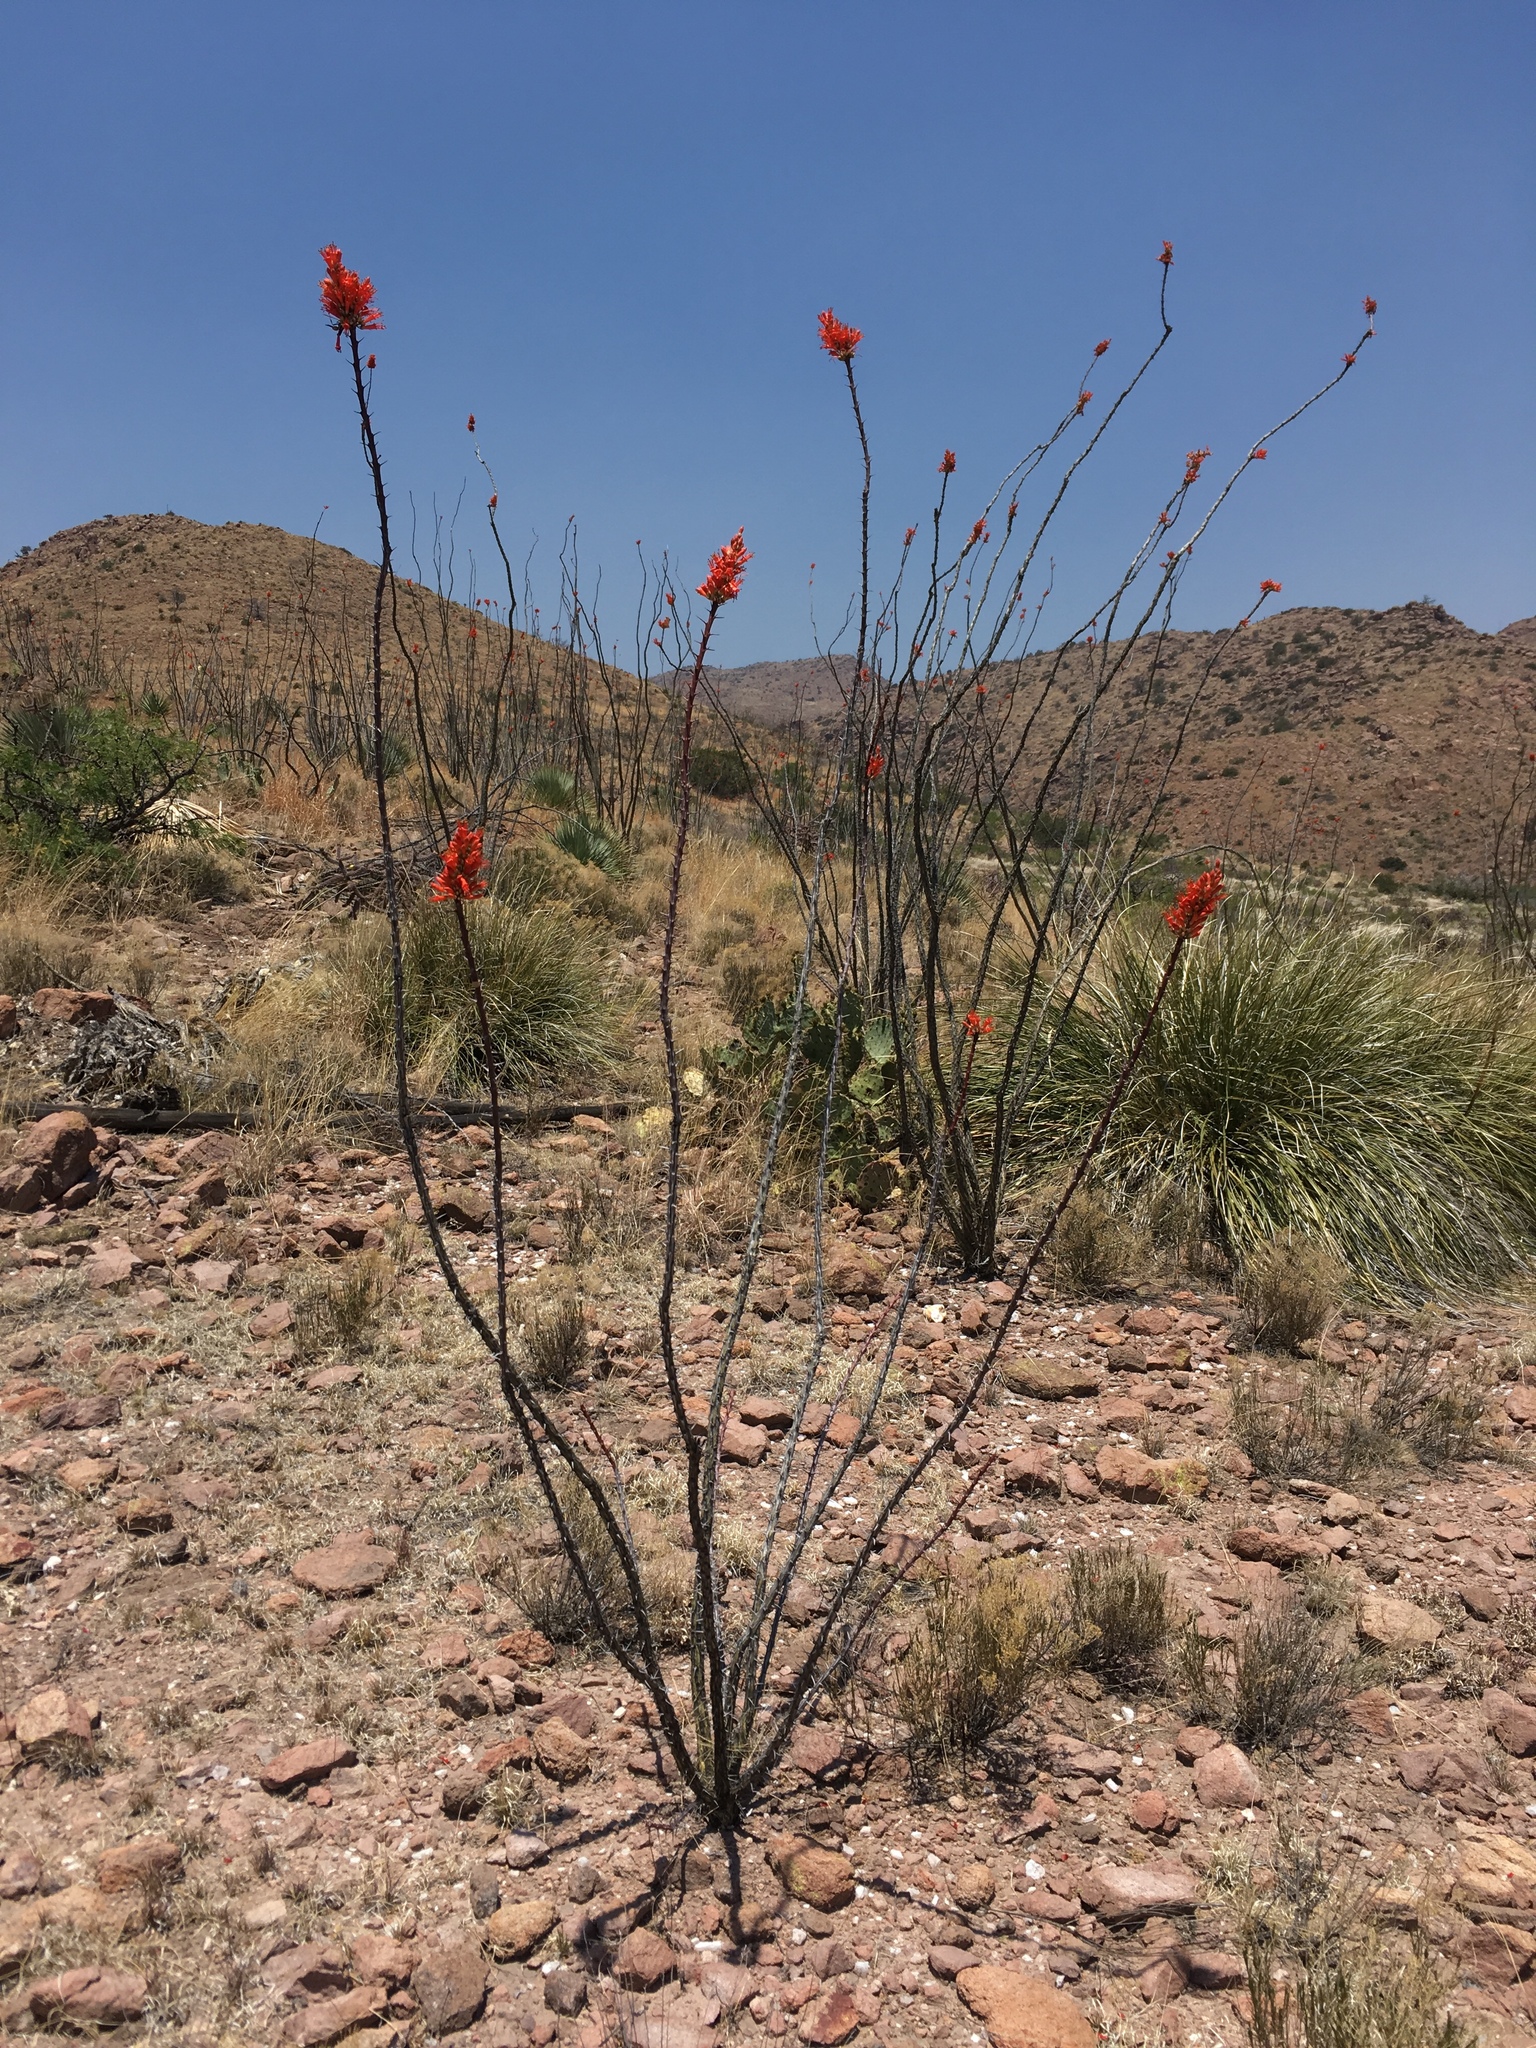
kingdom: Plantae
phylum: Tracheophyta
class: Magnoliopsida
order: Ericales
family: Fouquieriaceae
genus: Fouquieria
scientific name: Fouquieria splendens
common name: Vine-cactus
